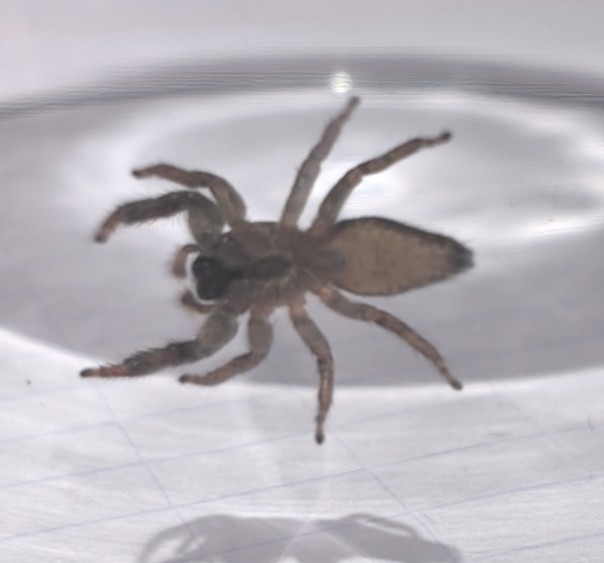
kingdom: Animalia
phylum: Arthropoda
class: Arachnida
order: Araneae
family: Salticidae
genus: Marpissa
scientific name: Marpissa muscosa
